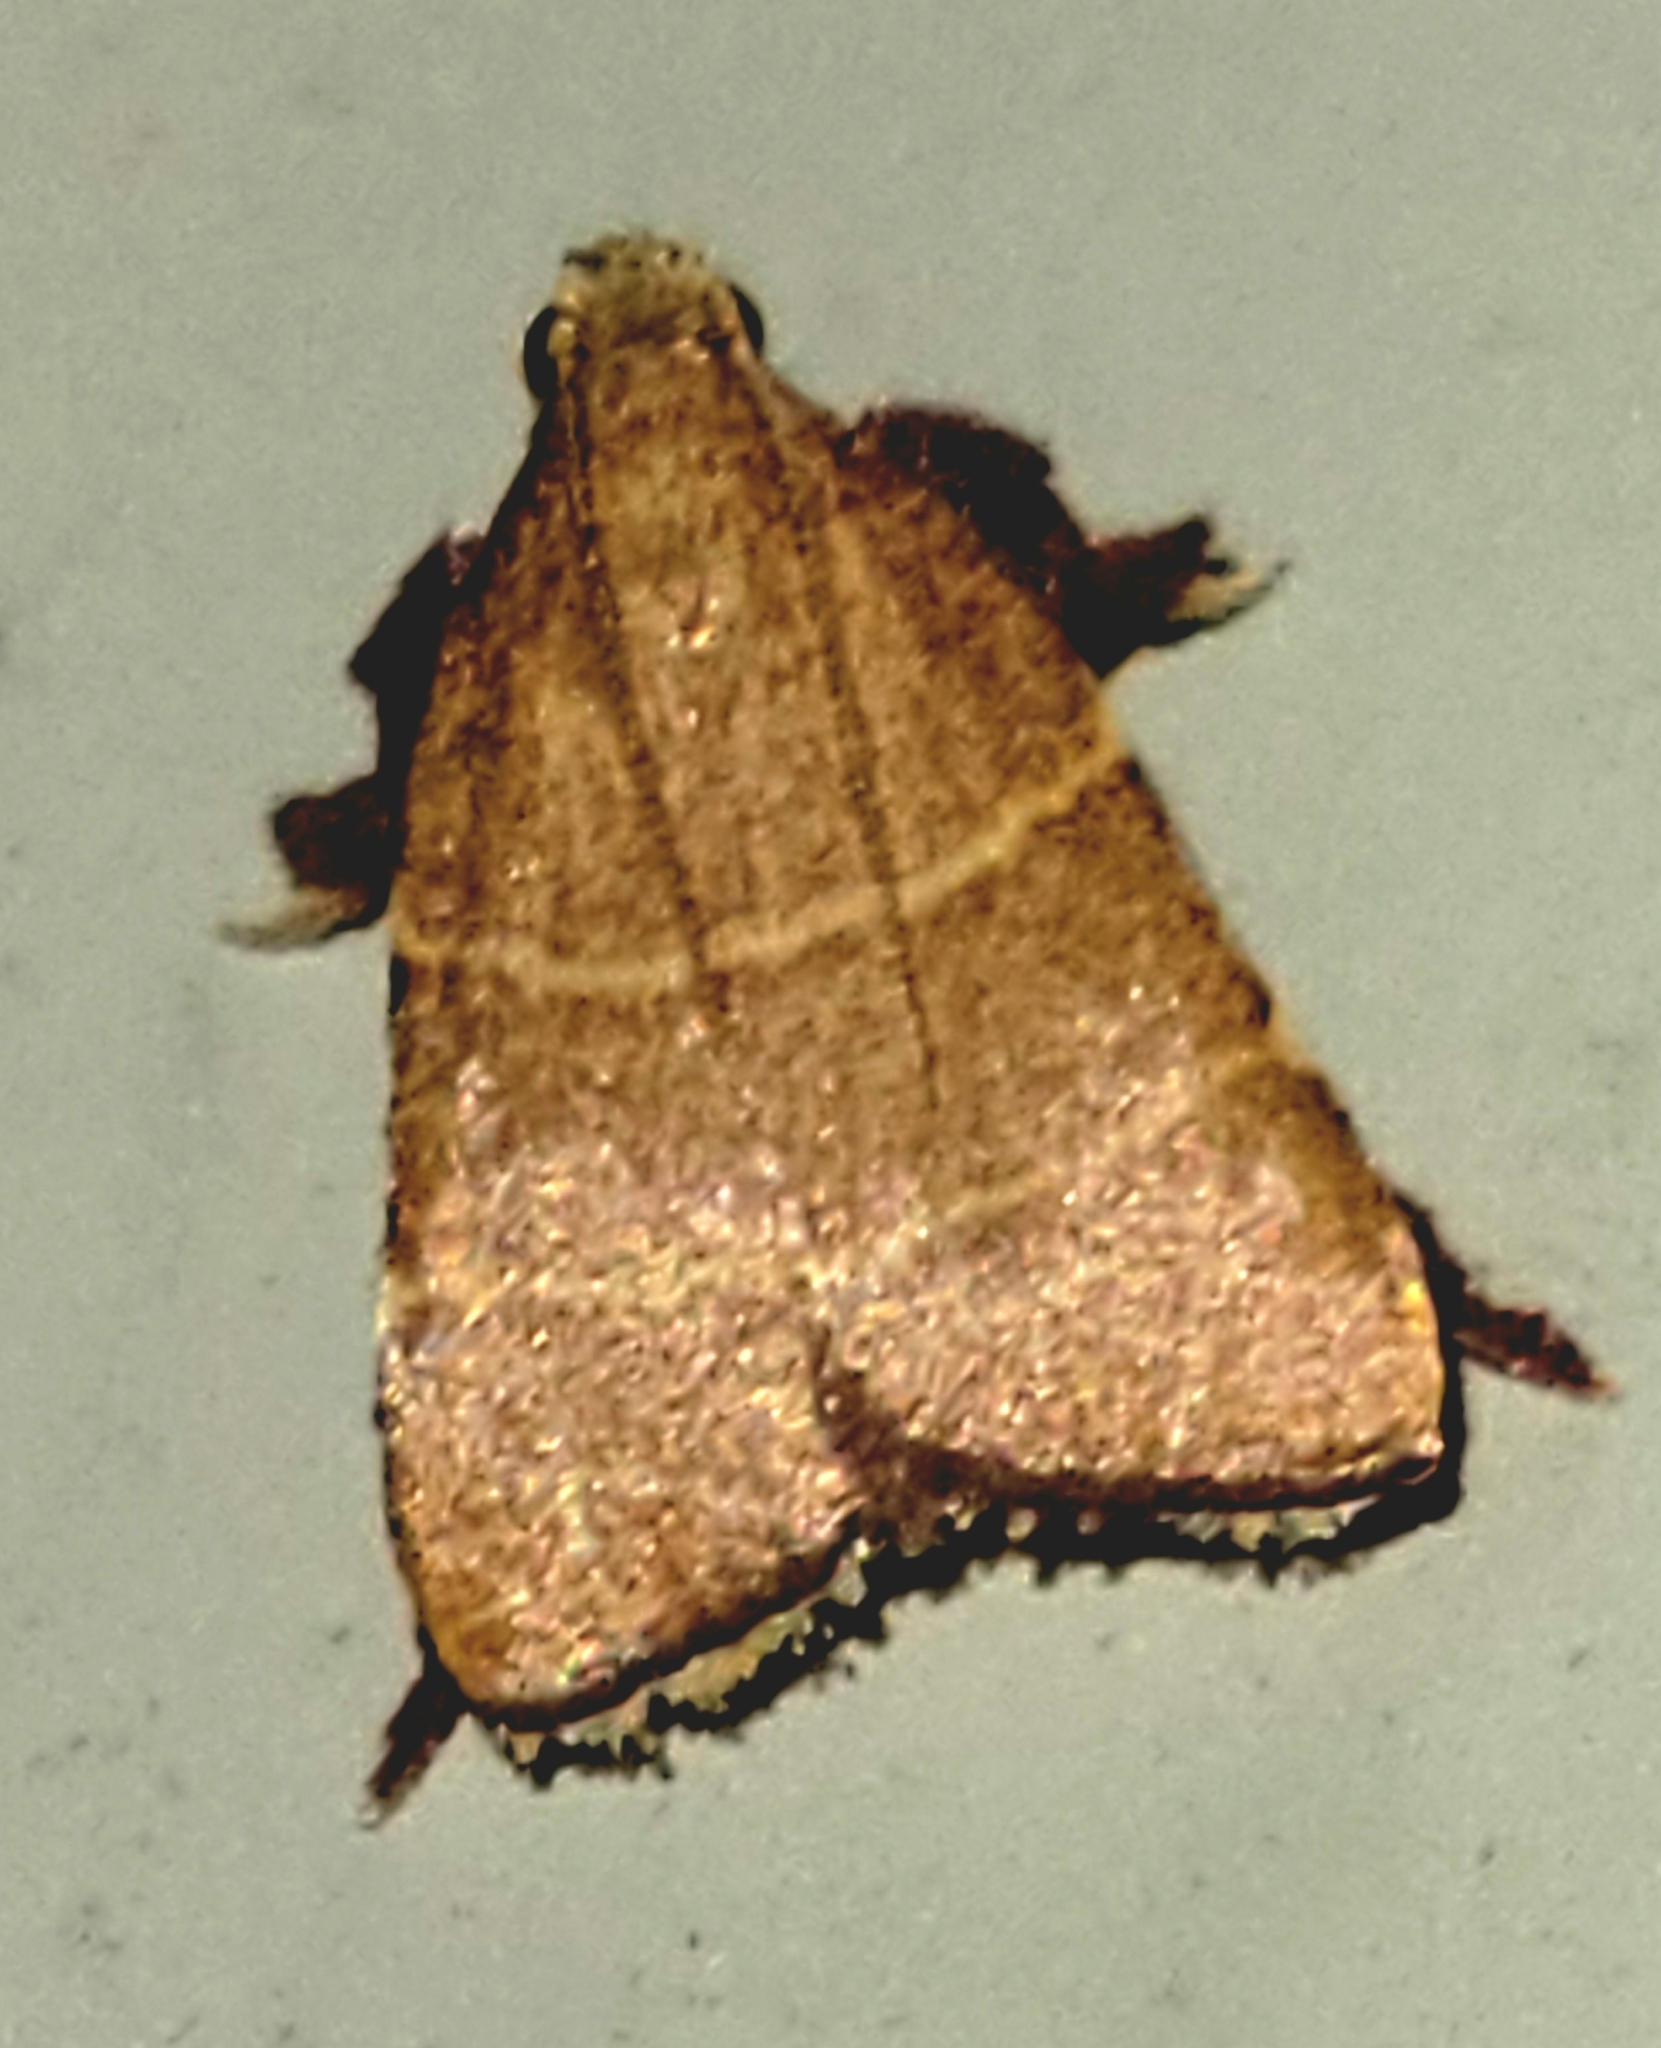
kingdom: Animalia
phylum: Arthropoda
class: Insecta
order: Lepidoptera
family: Pyralidae
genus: Parachma
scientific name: Parachma ochracealis
